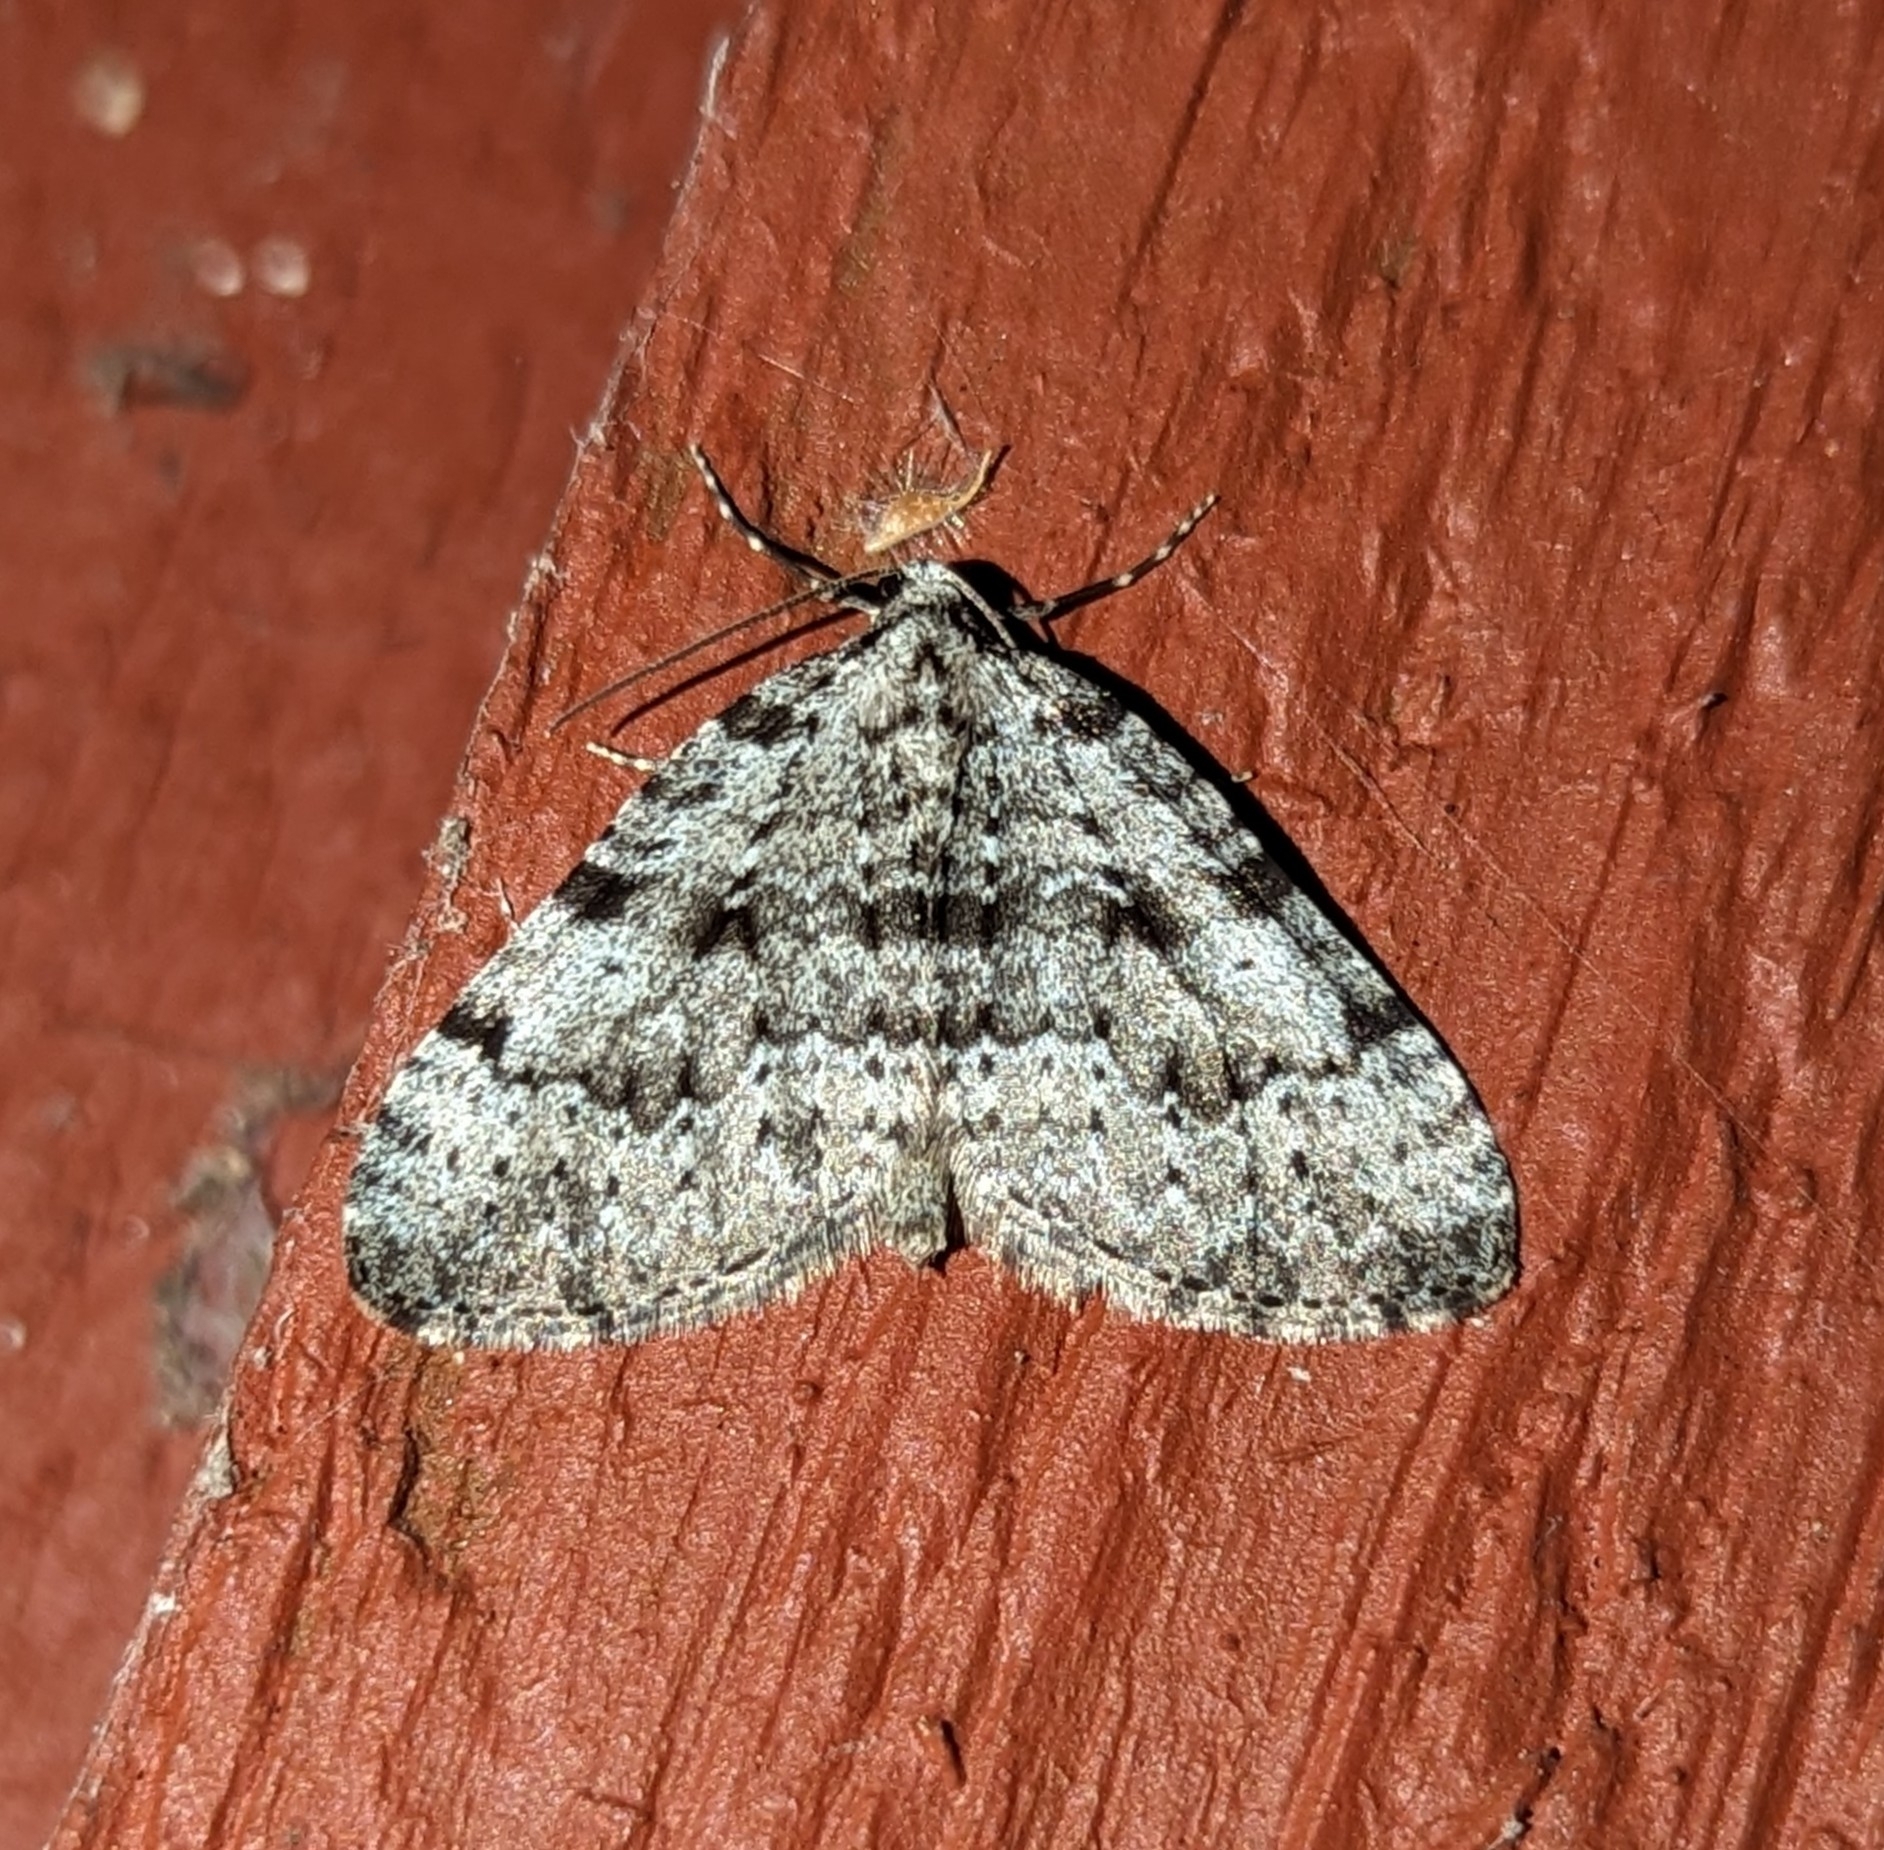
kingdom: Animalia
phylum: Arthropoda
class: Insecta
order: Lepidoptera
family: Geometridae
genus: Perizoma
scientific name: Perizoma curvilinea
